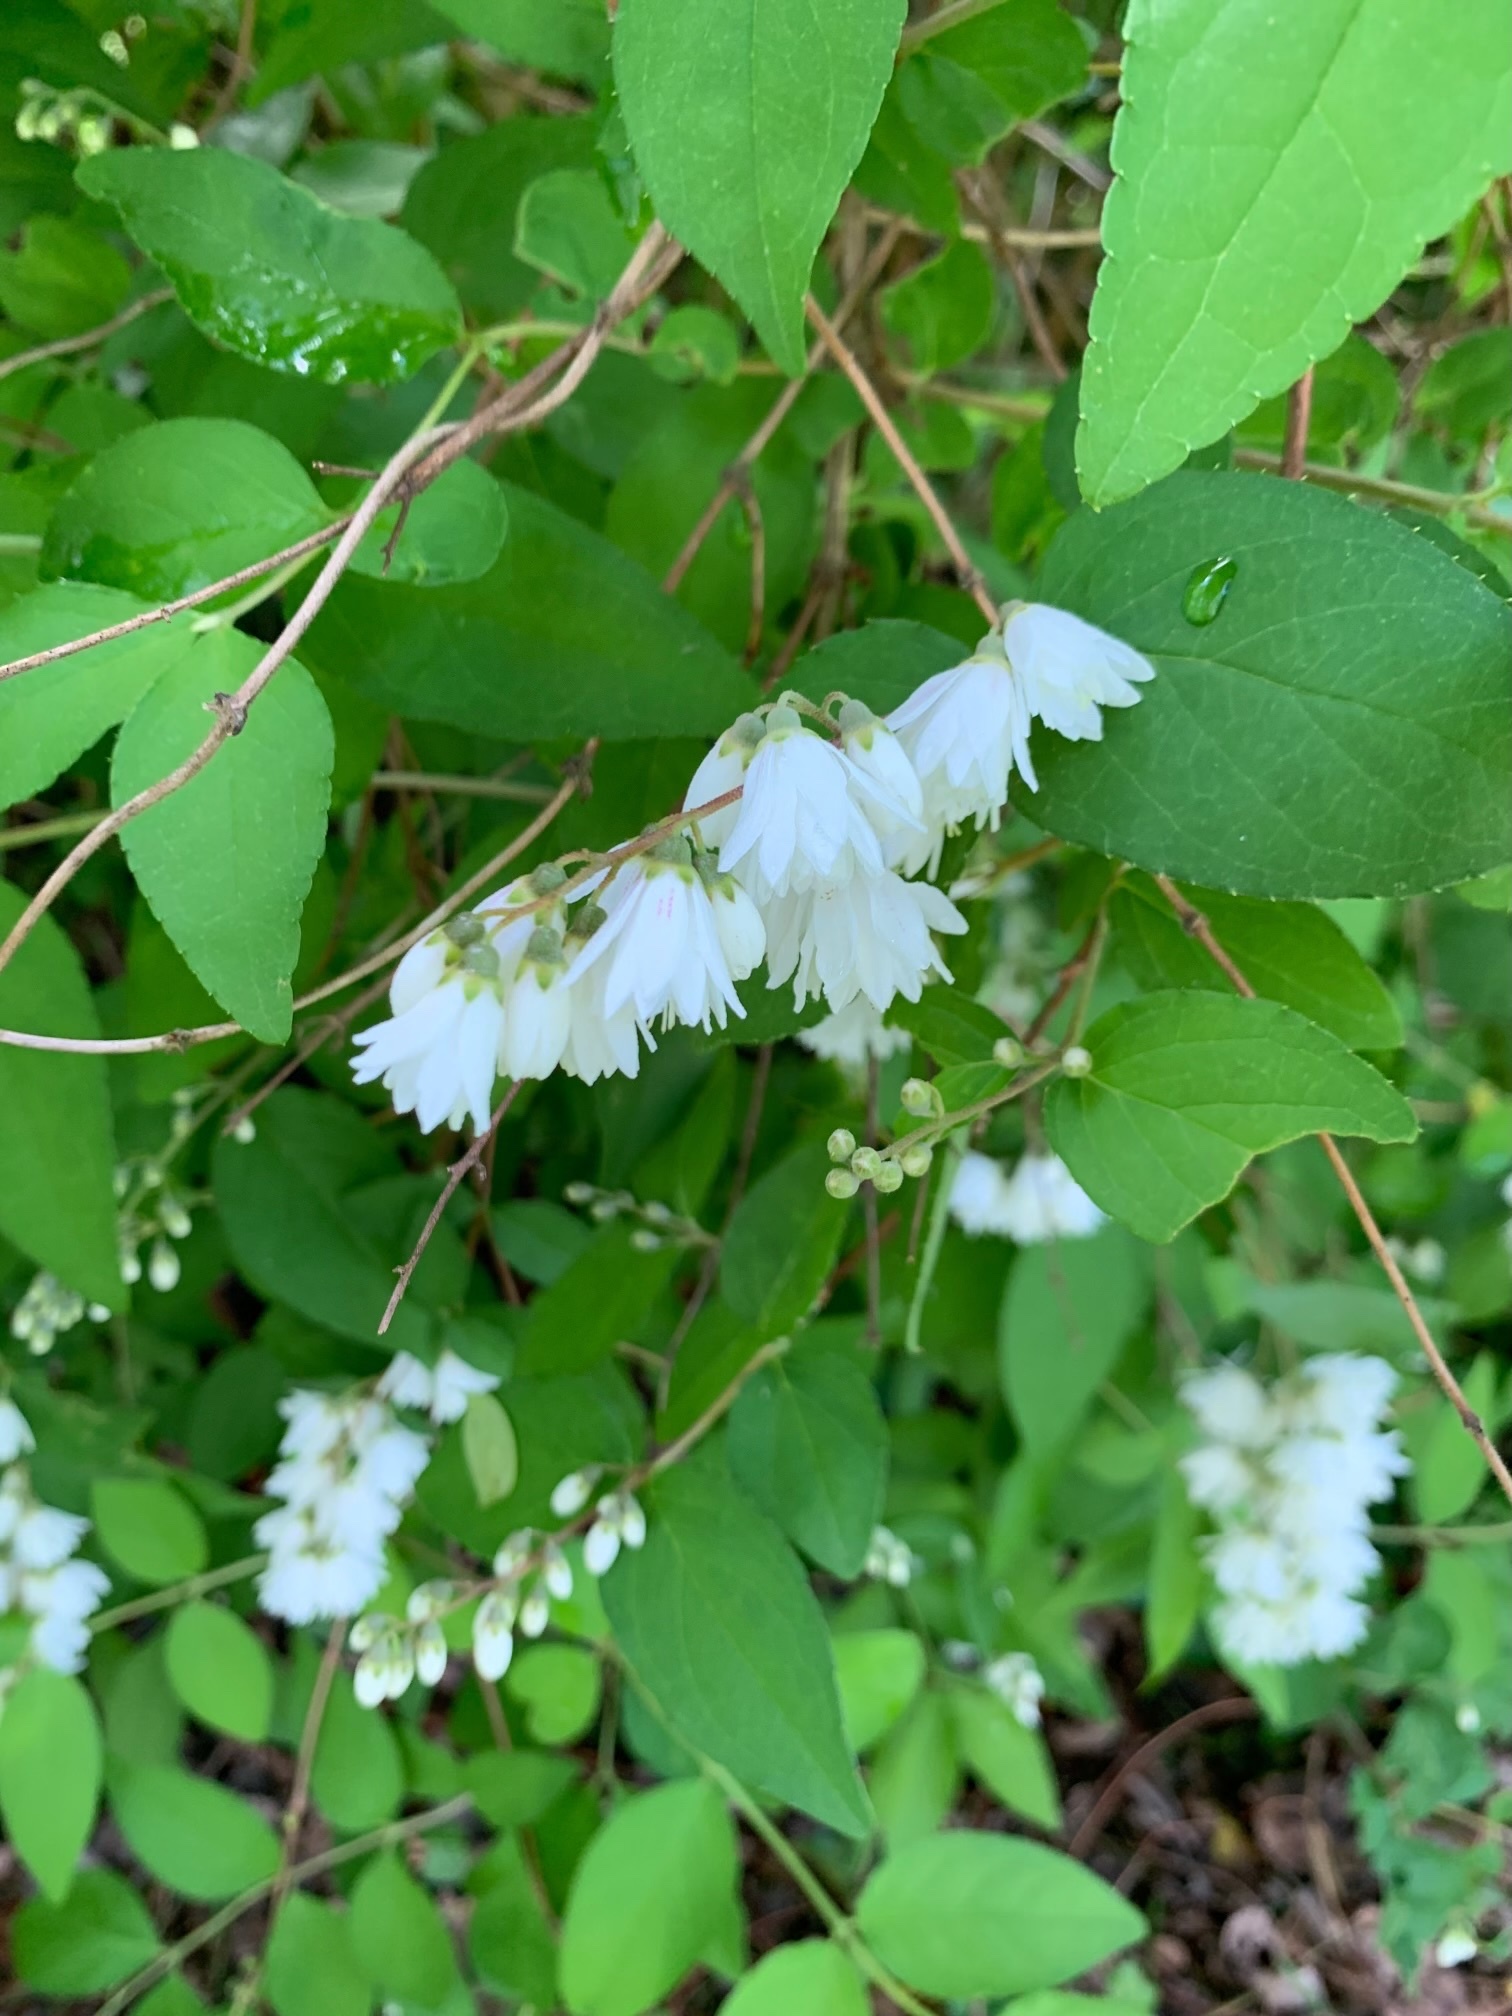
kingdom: Plantae
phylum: Tracheophyta
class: Magnoliopsida
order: Cornales
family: Hydrangeaceae
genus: Deutzia
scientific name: Deutzia crenata
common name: Deutzia
